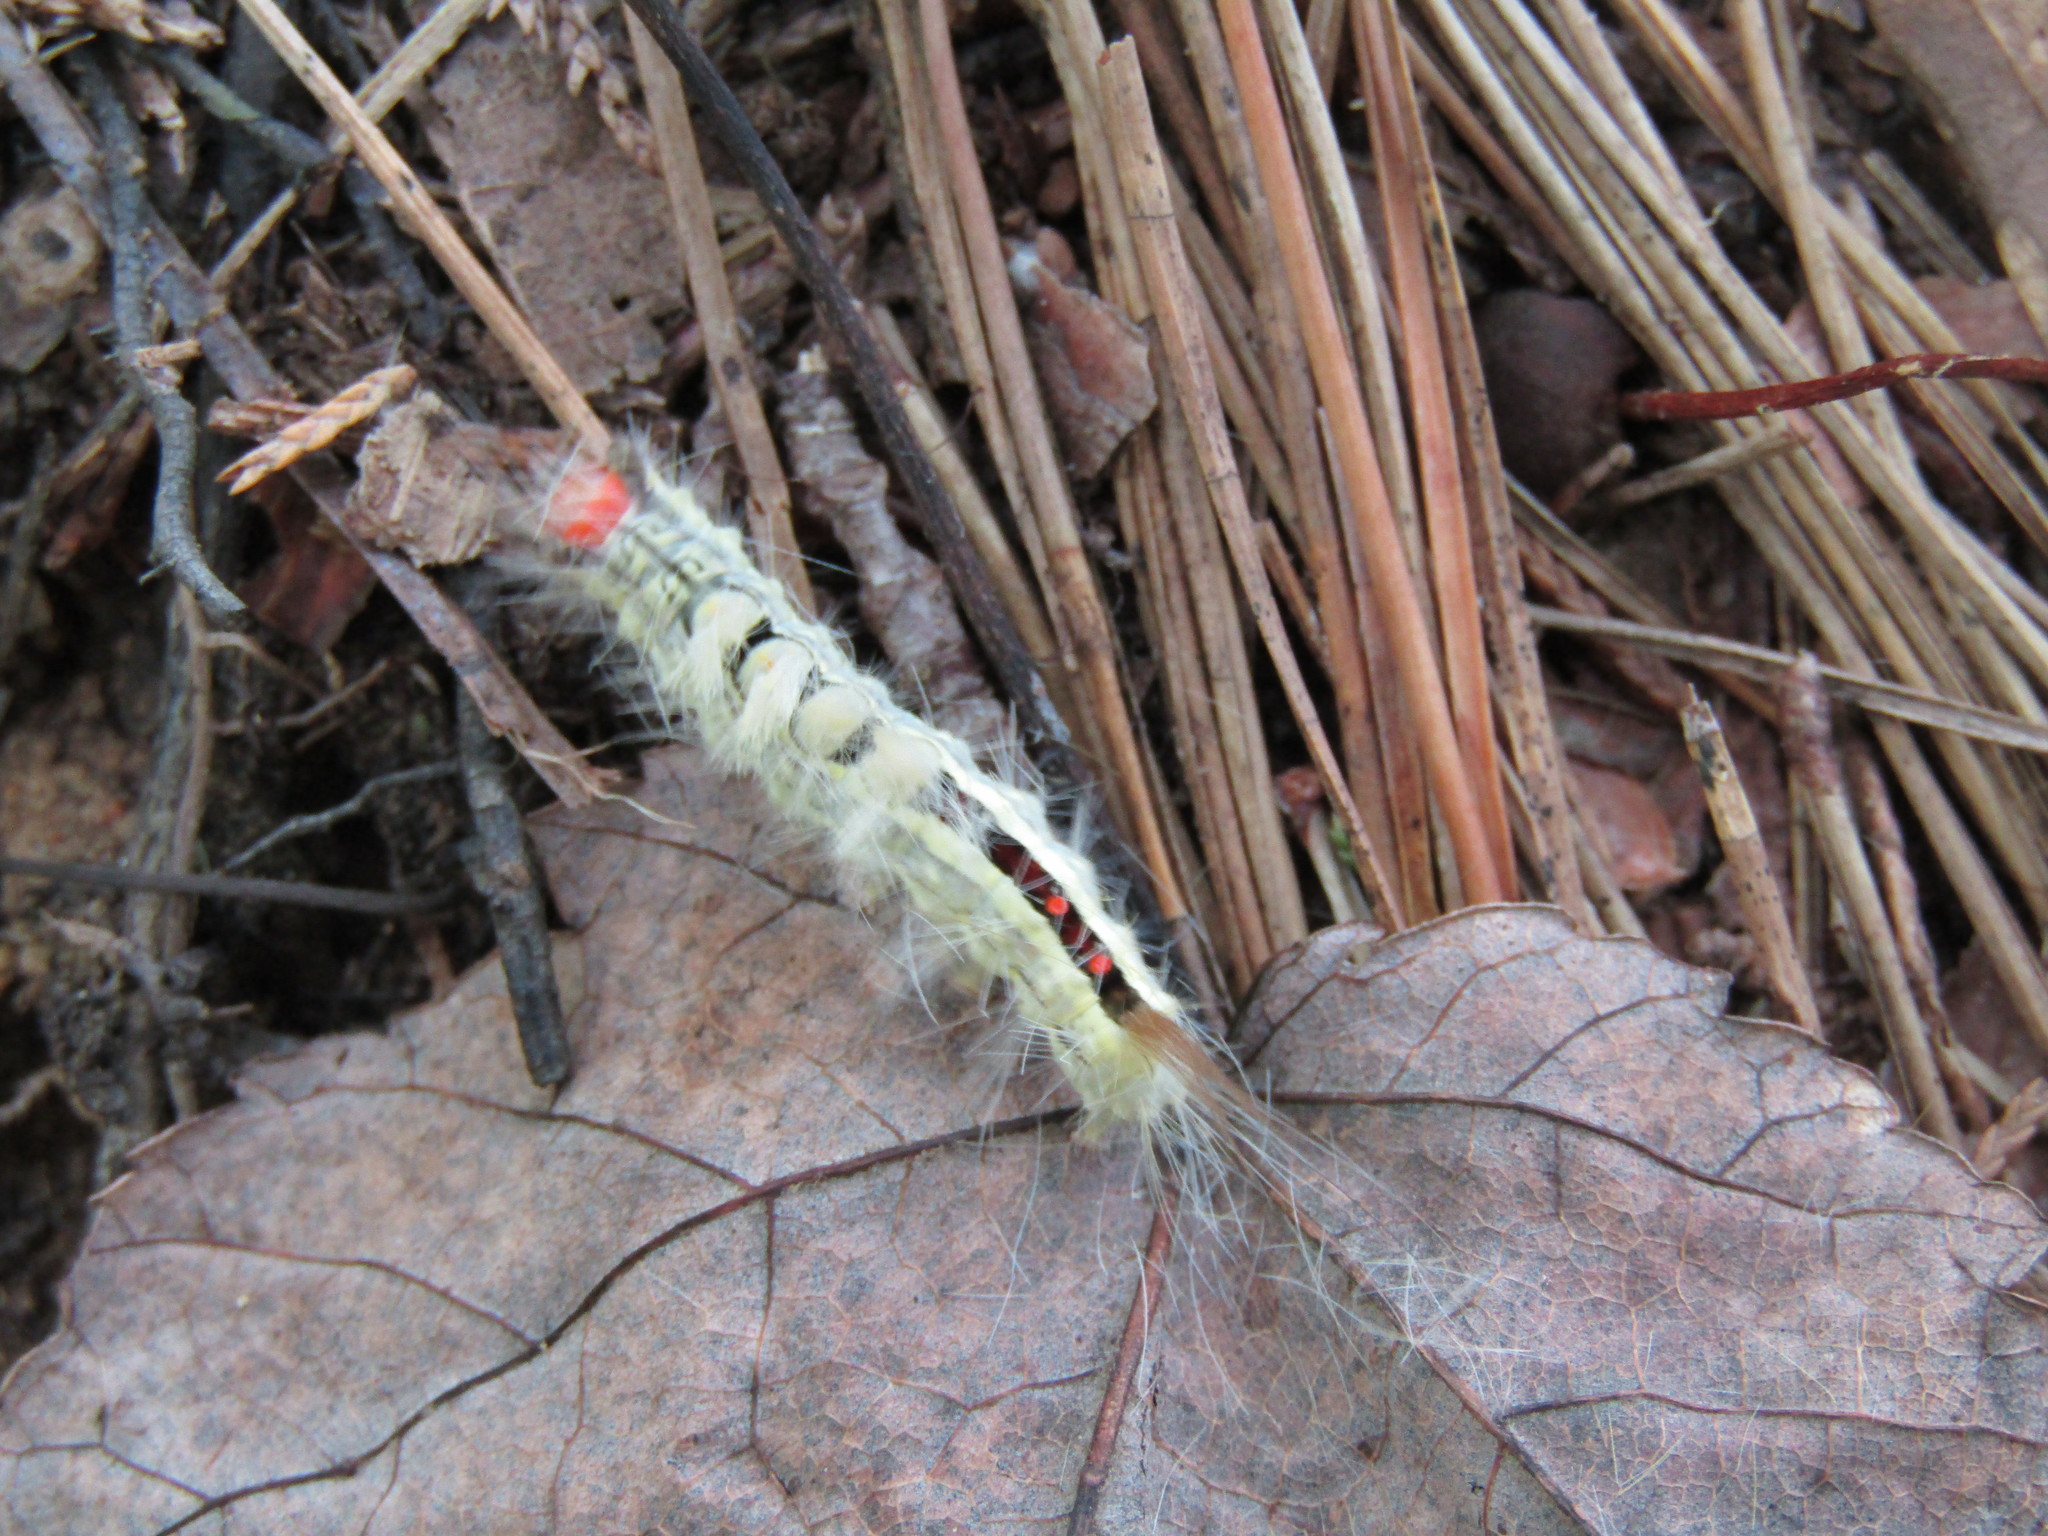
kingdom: Animalia
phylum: Arthropoda
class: Insecta
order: Lepidoptera
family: Erebidae
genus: Orgyia
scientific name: Orgyia leucostigma
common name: White-marked tussock moth
